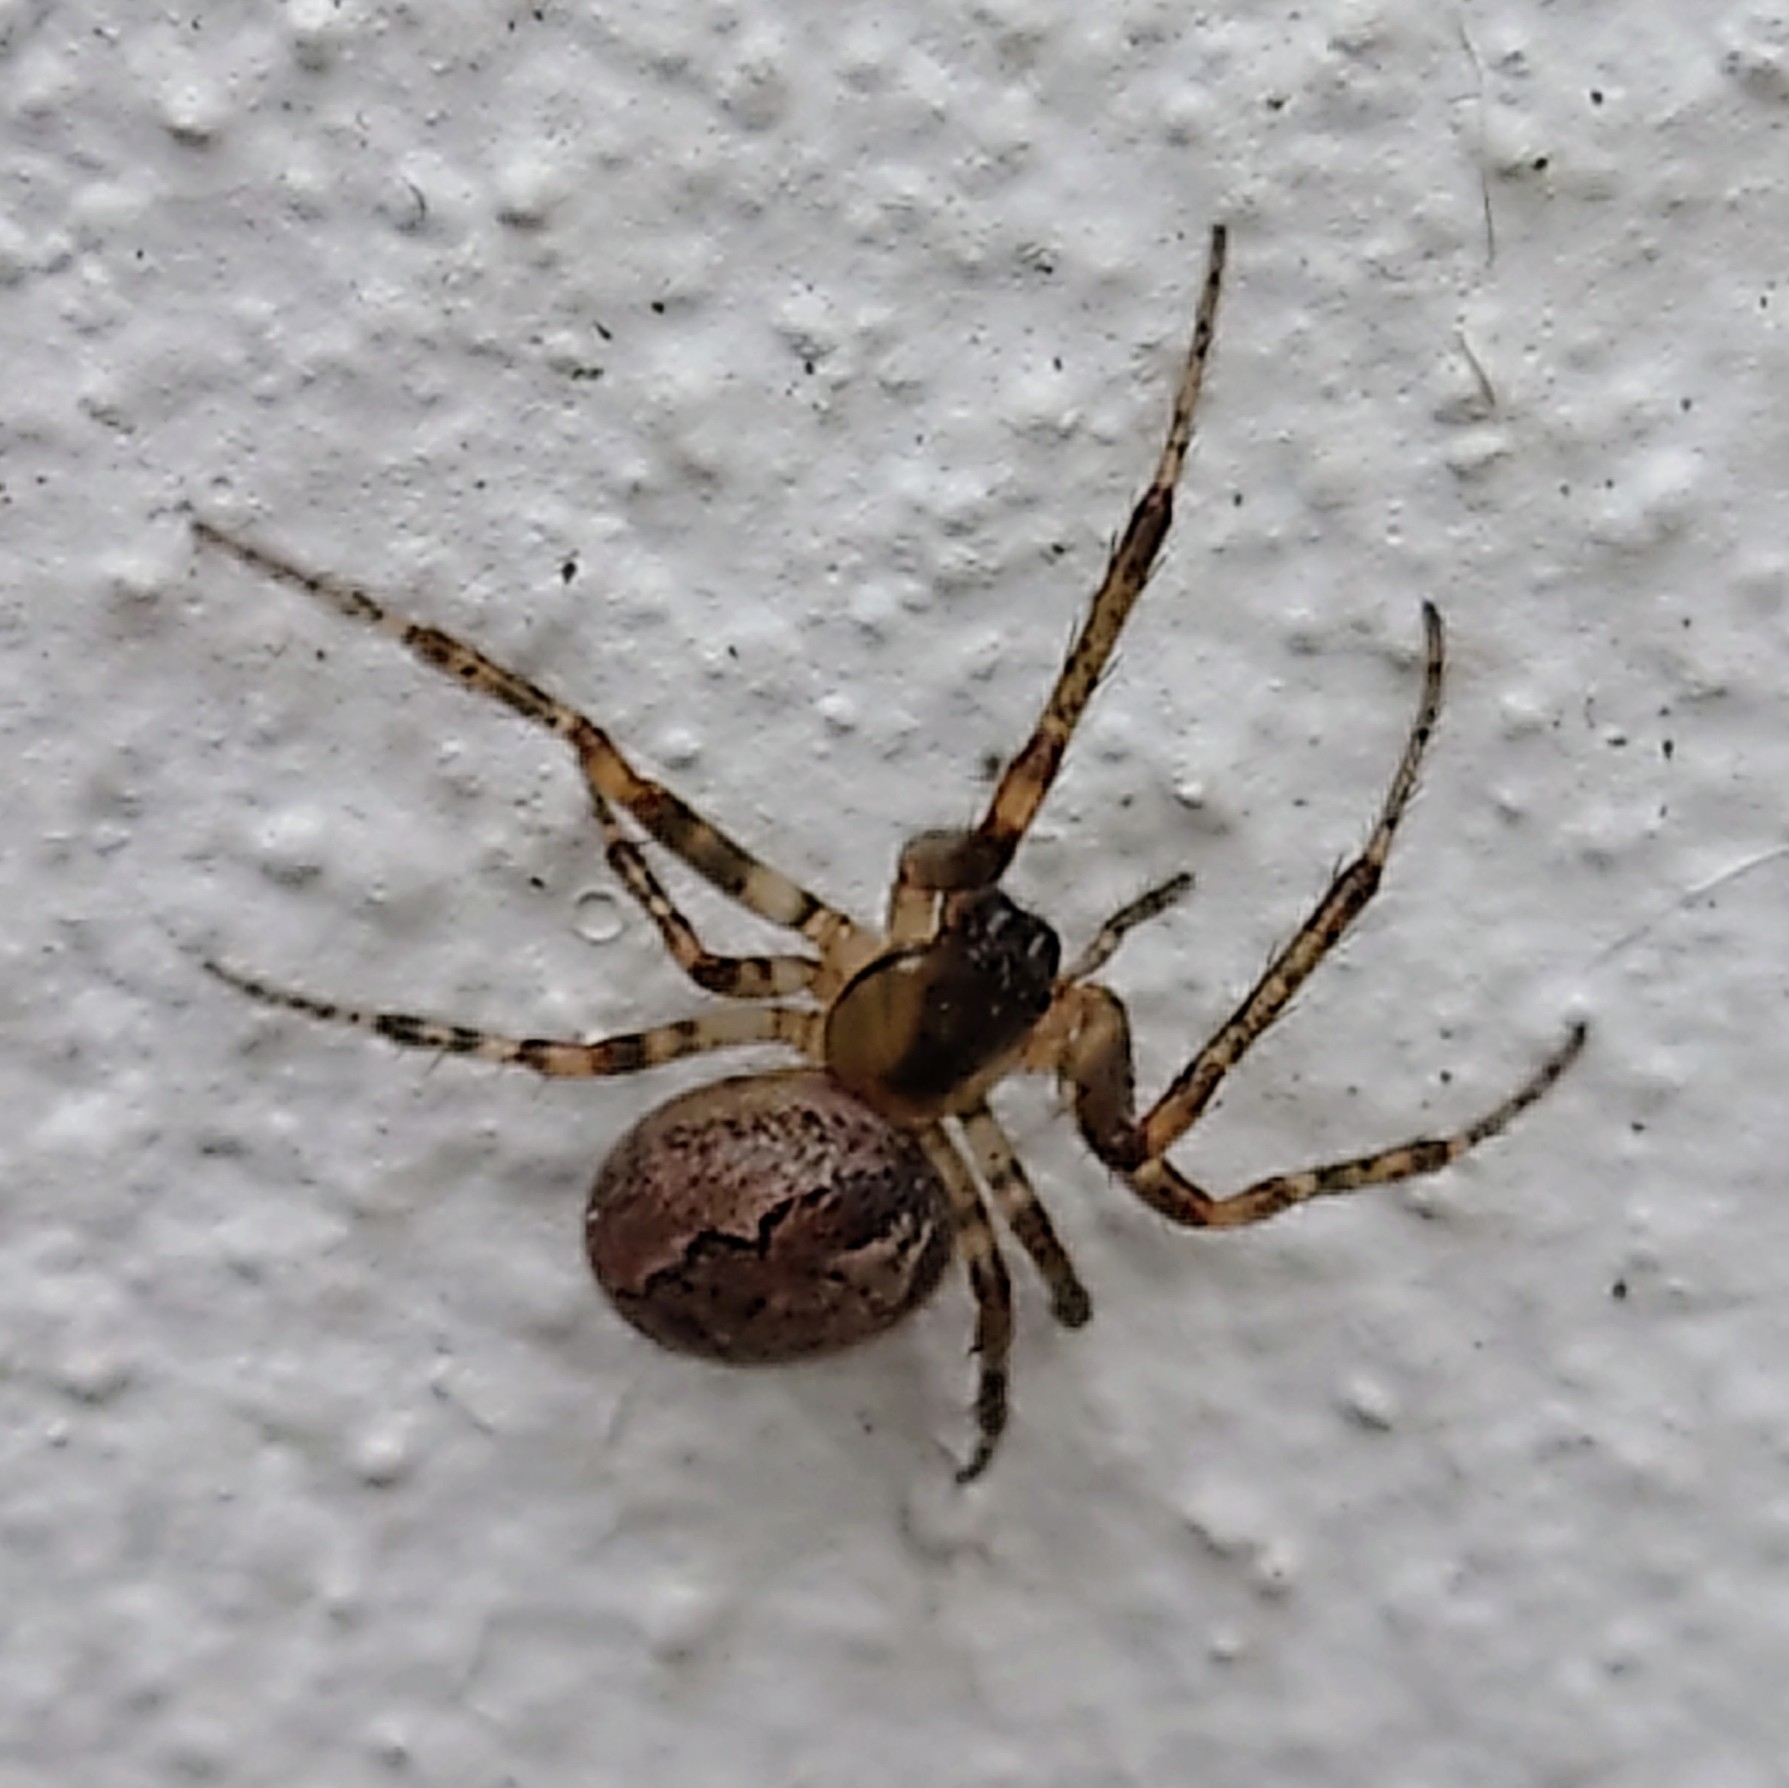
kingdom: Animalia
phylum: Arthropoda
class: Arachnida
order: Araneae
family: Araneidae
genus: Zygiella
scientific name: Zygiella x-notata
